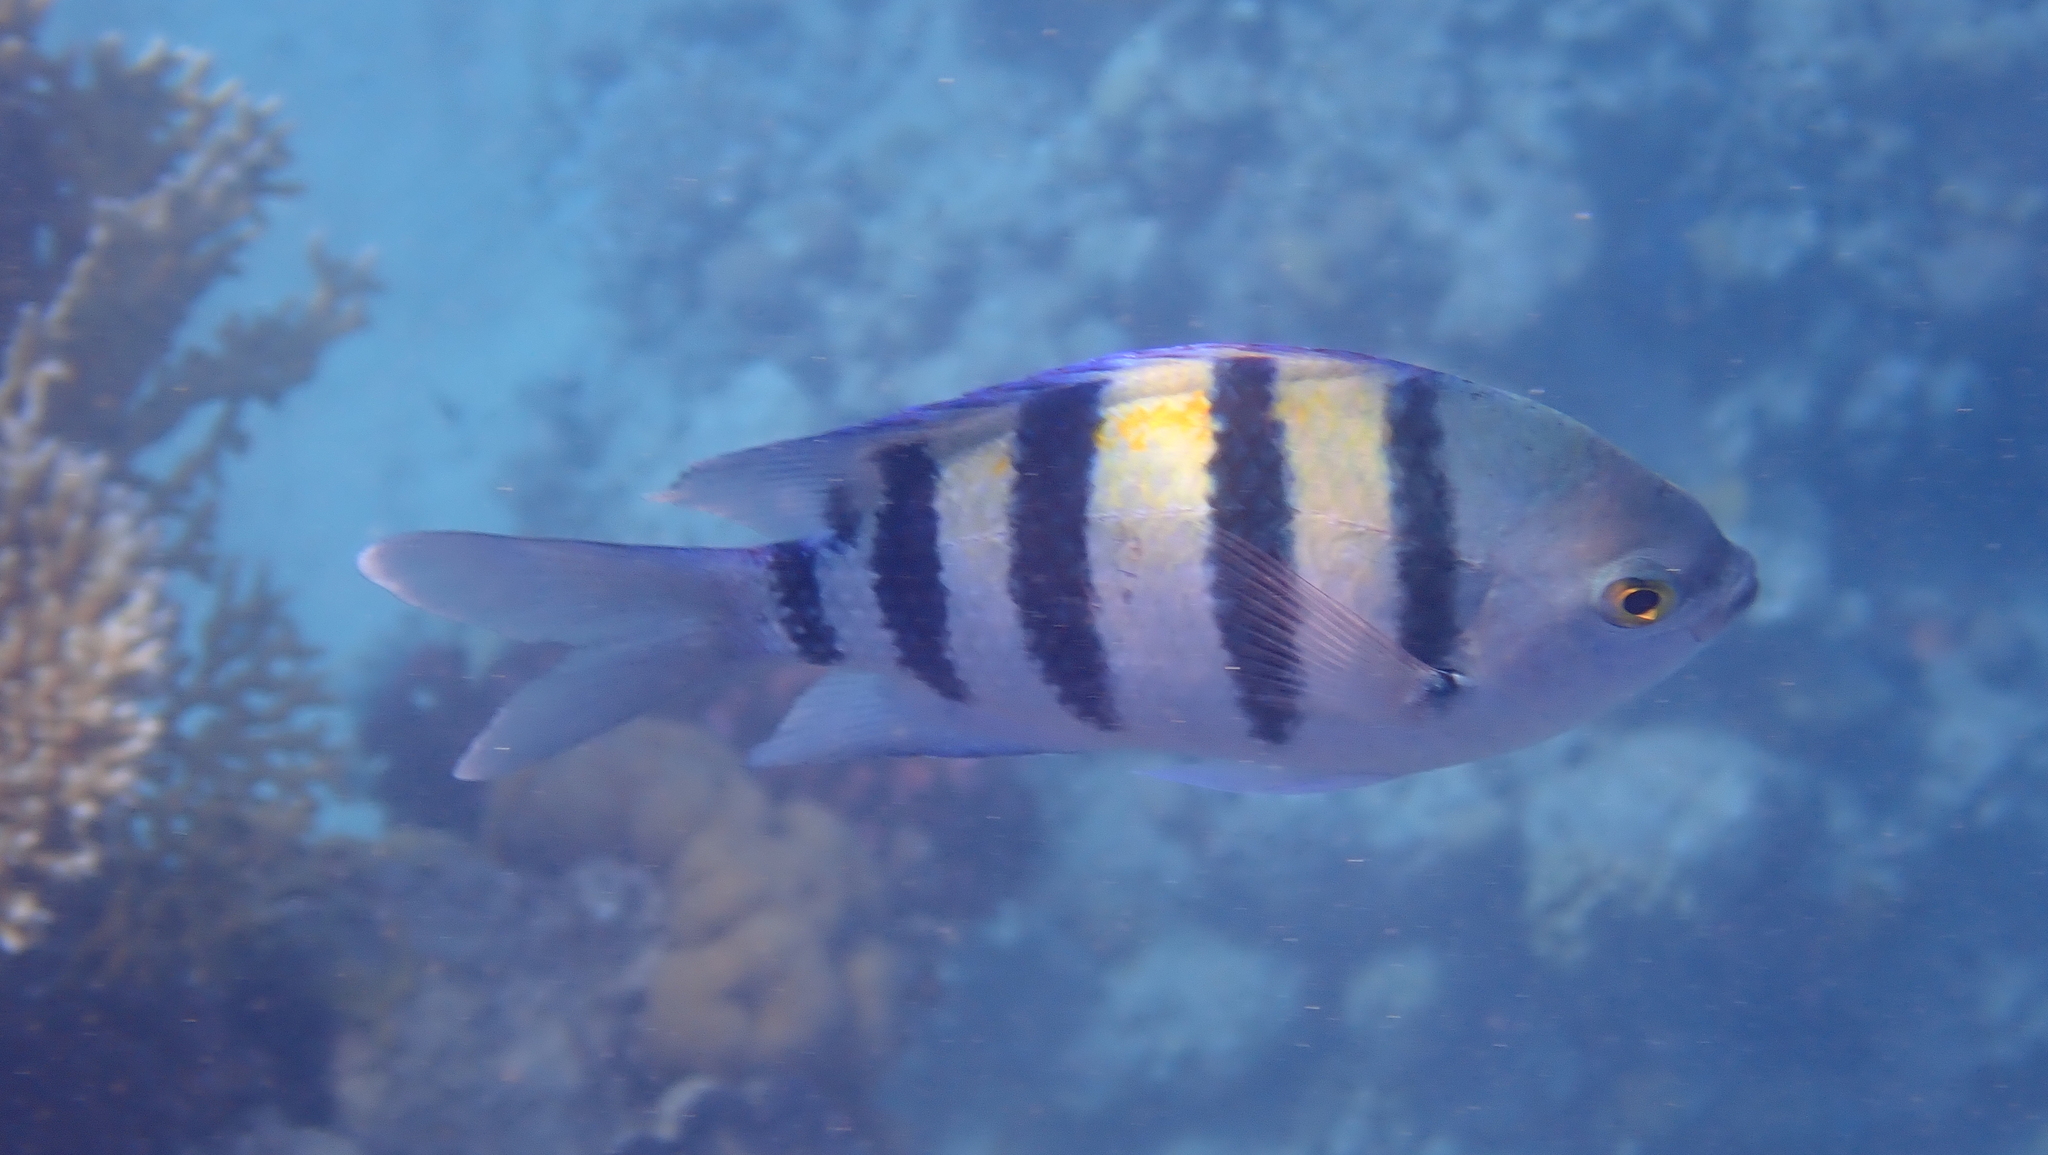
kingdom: Animalia
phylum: Chordata
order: Perciformes
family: Pomacentridae
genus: Abudefduf
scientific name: Abudefduf vaigiensis
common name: Indo-pacific sergeant
